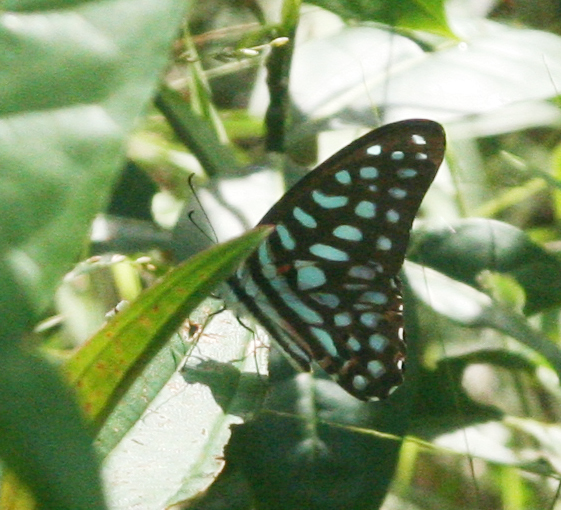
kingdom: Animalia
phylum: Arthropoda
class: Insecta
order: Lepidoptera
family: Papilionidae
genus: Graphium
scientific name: Graphium arycles
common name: Spotted jay
